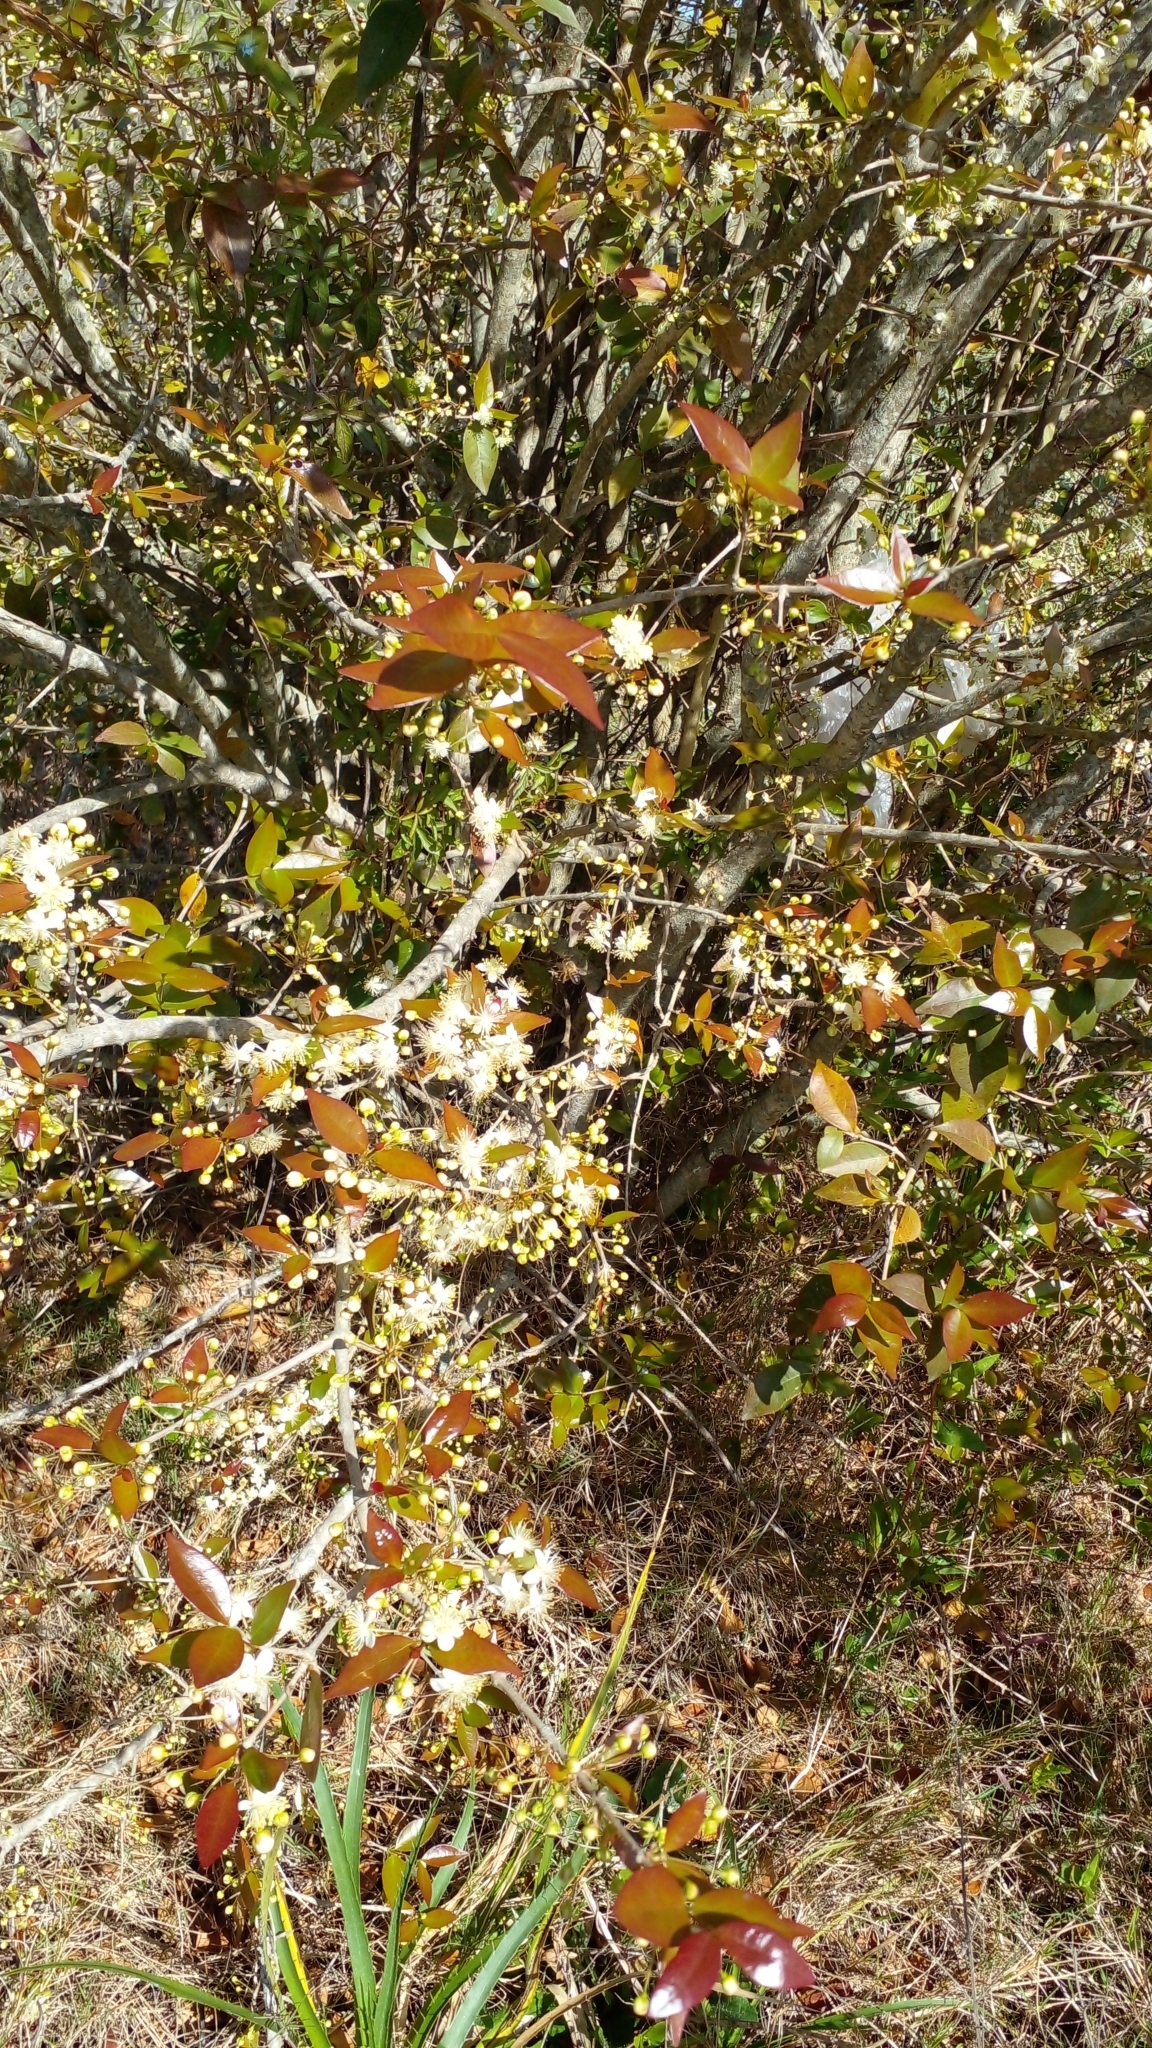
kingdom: Plantae
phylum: Tracheophyta
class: Magnoliopsida
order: Myrtales
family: Myrtaceae
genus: Eugenia
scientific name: Eugenia uniflora
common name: Surinam cherry
